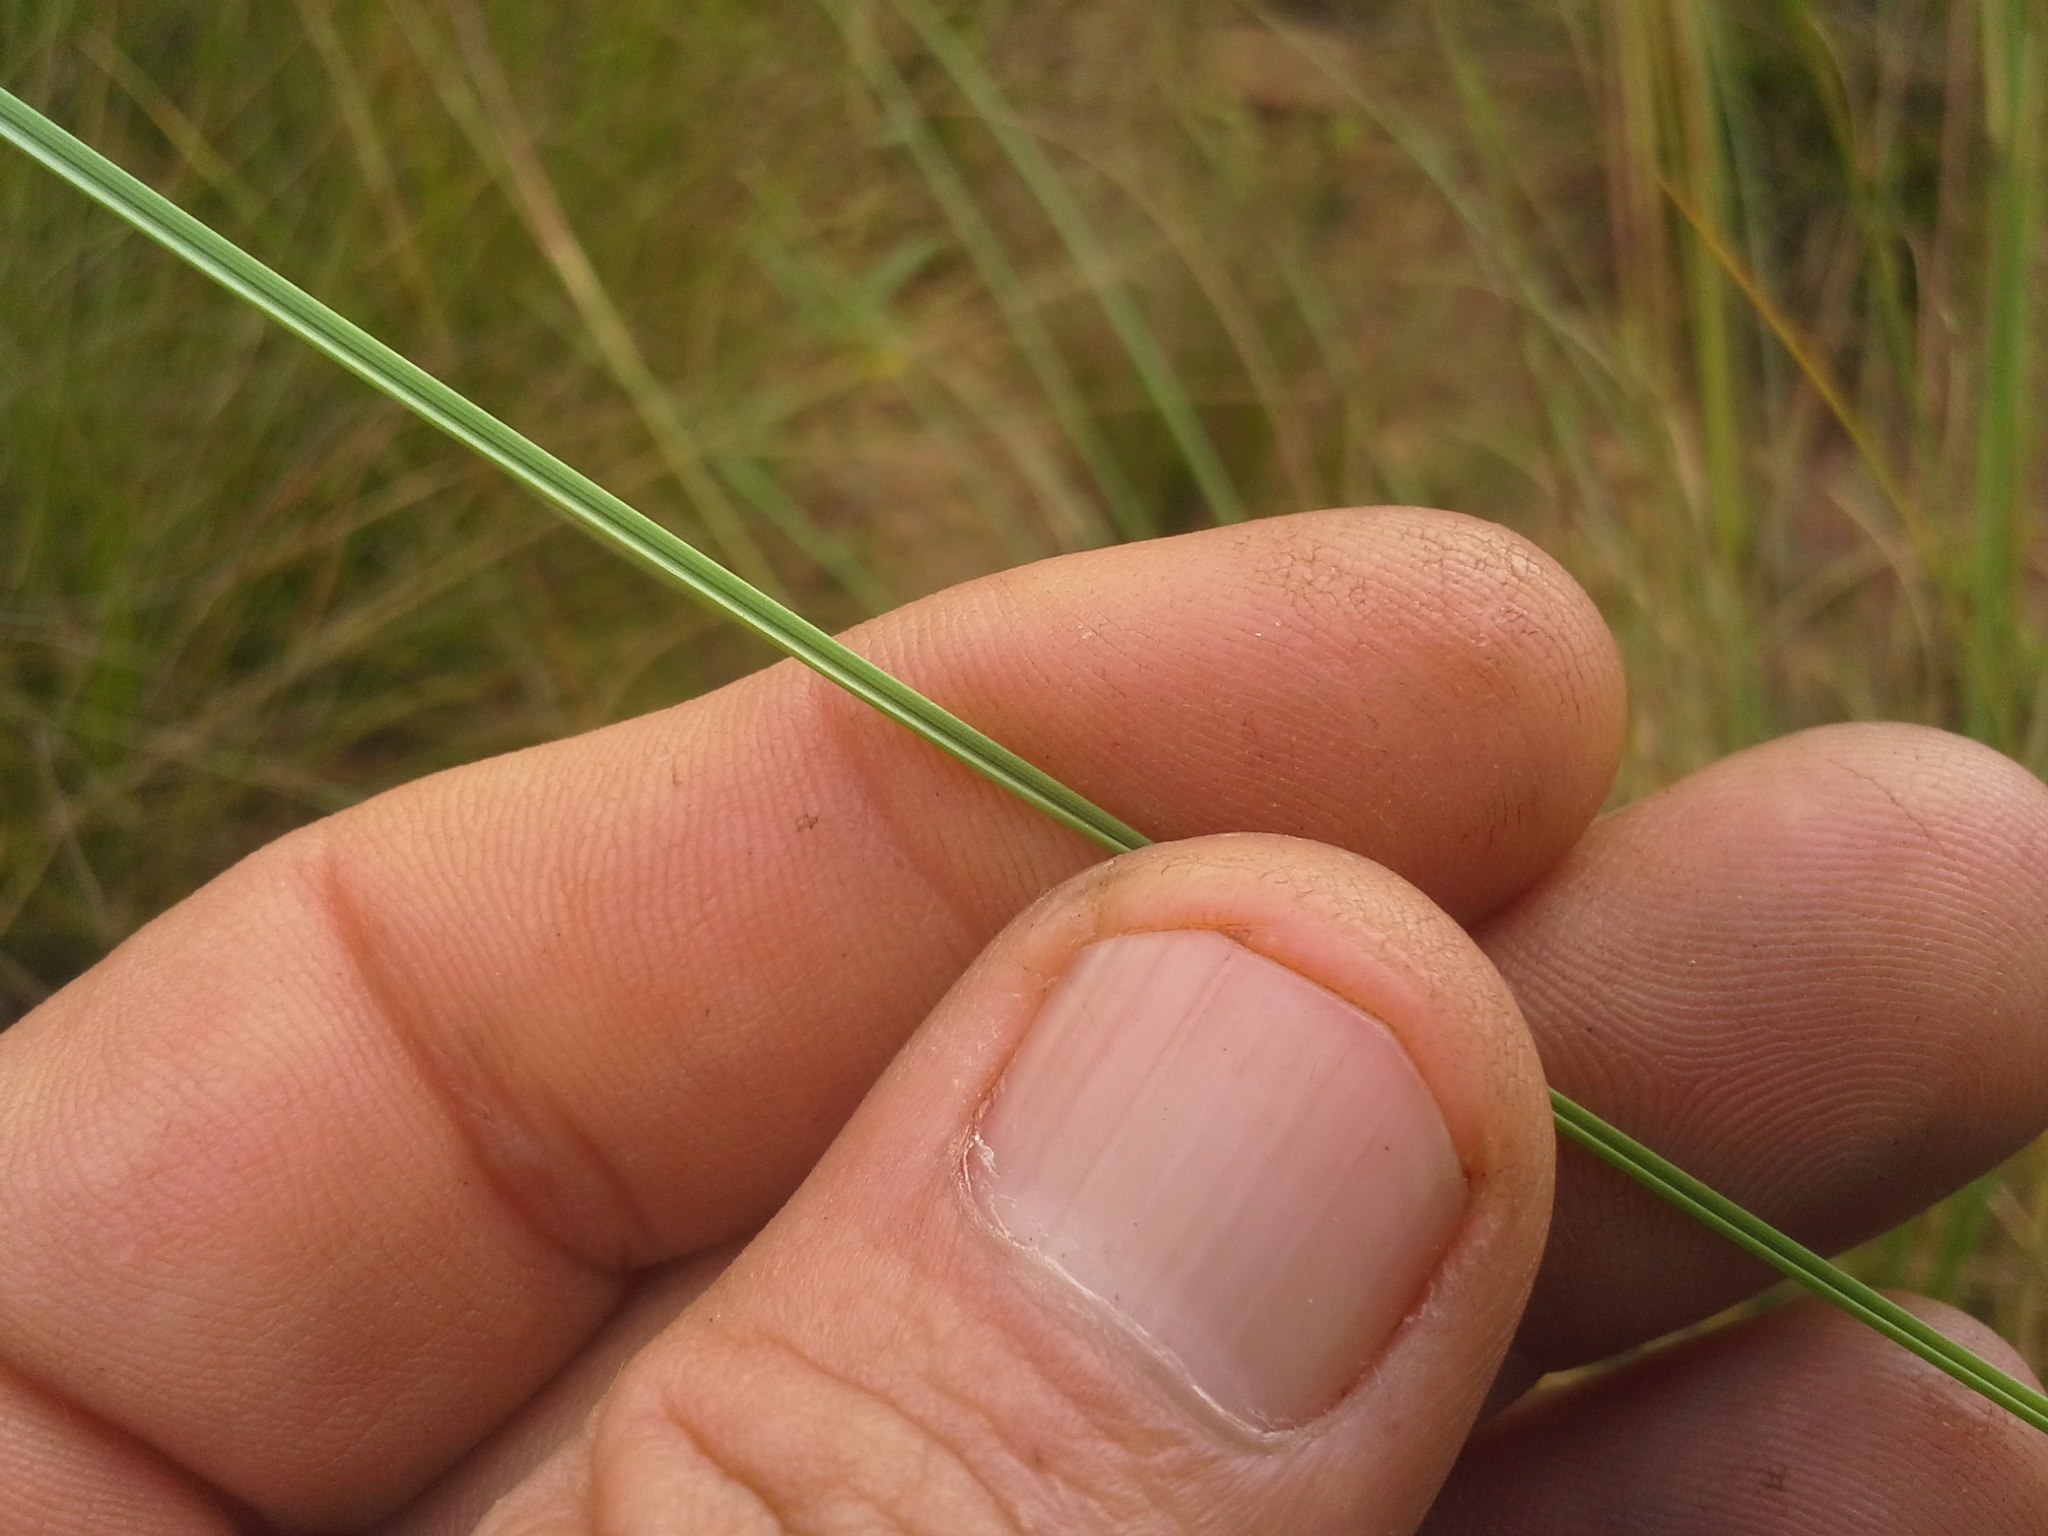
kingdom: Plantae
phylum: Tracheophyta
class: Liliopsida
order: Poales
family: Poaceae
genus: Trichanthecium
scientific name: Trichanthecium natalense
